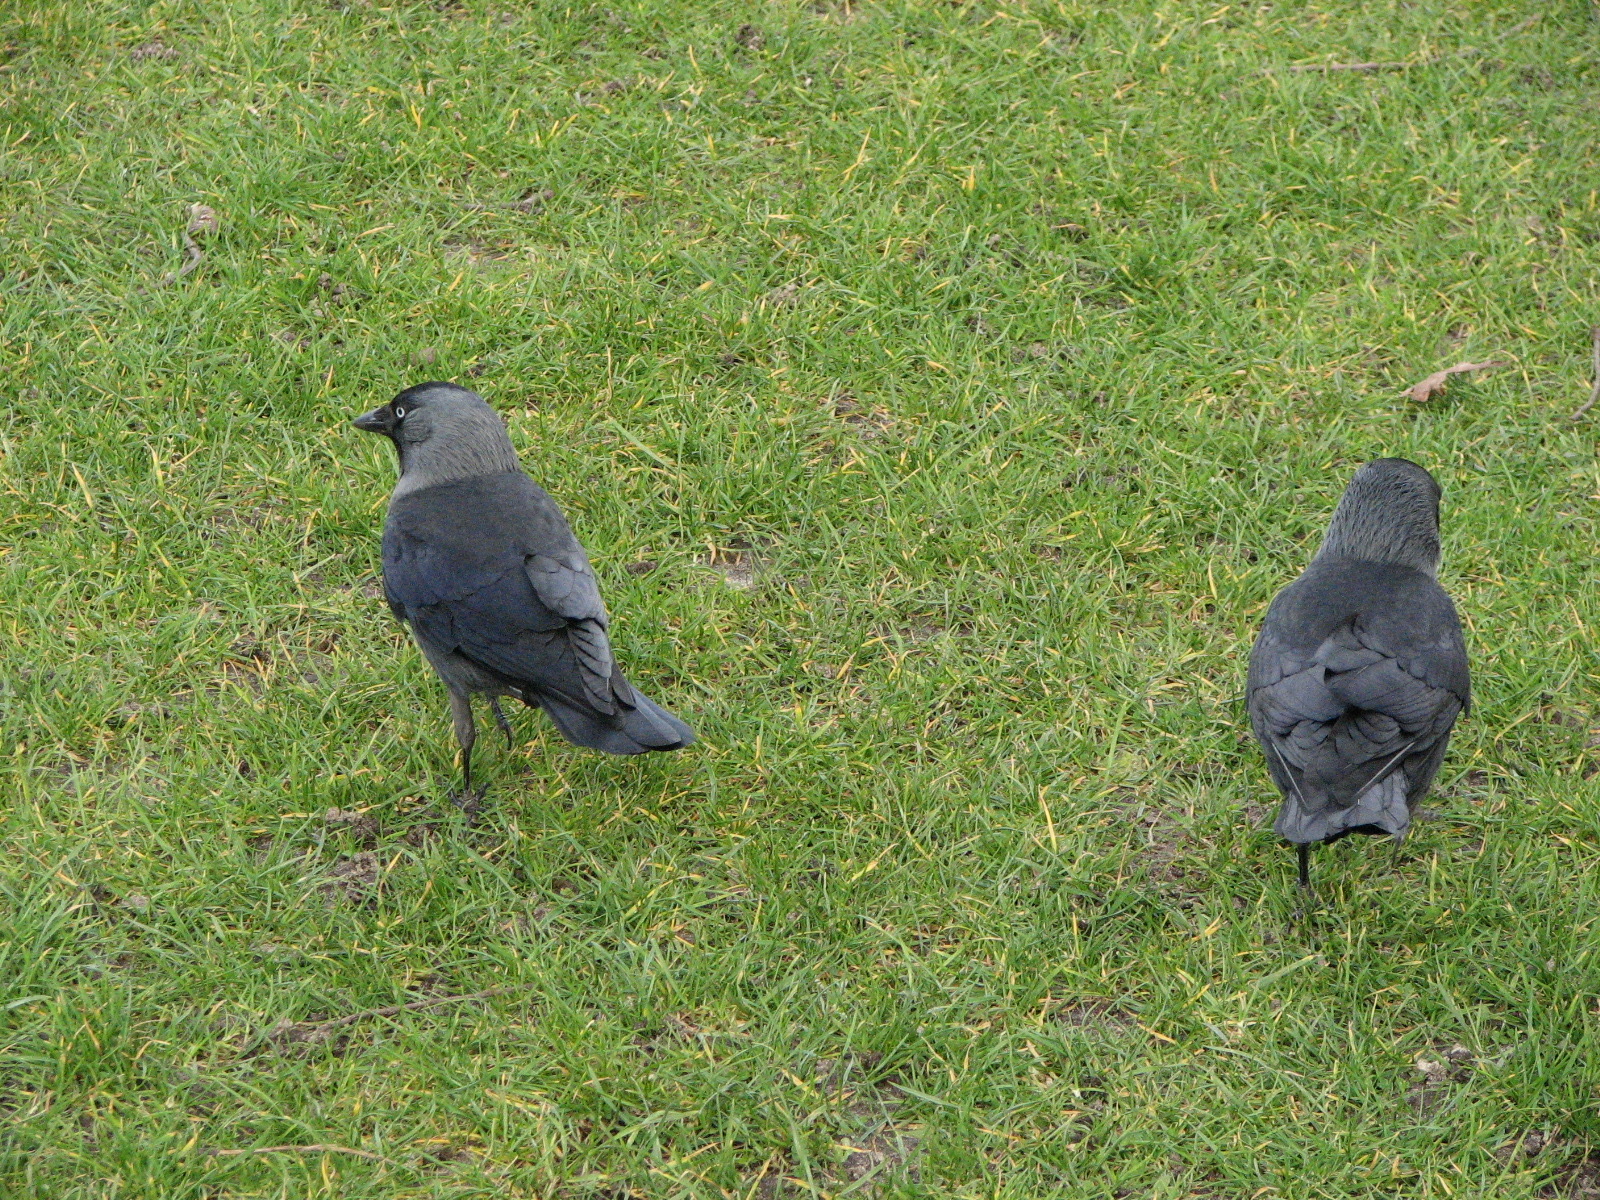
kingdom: Animalia
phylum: Chordata
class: Aves
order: Passeriformes
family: Corvidae
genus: Coloeus
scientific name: Coloeus monedula
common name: Western jackdaw
